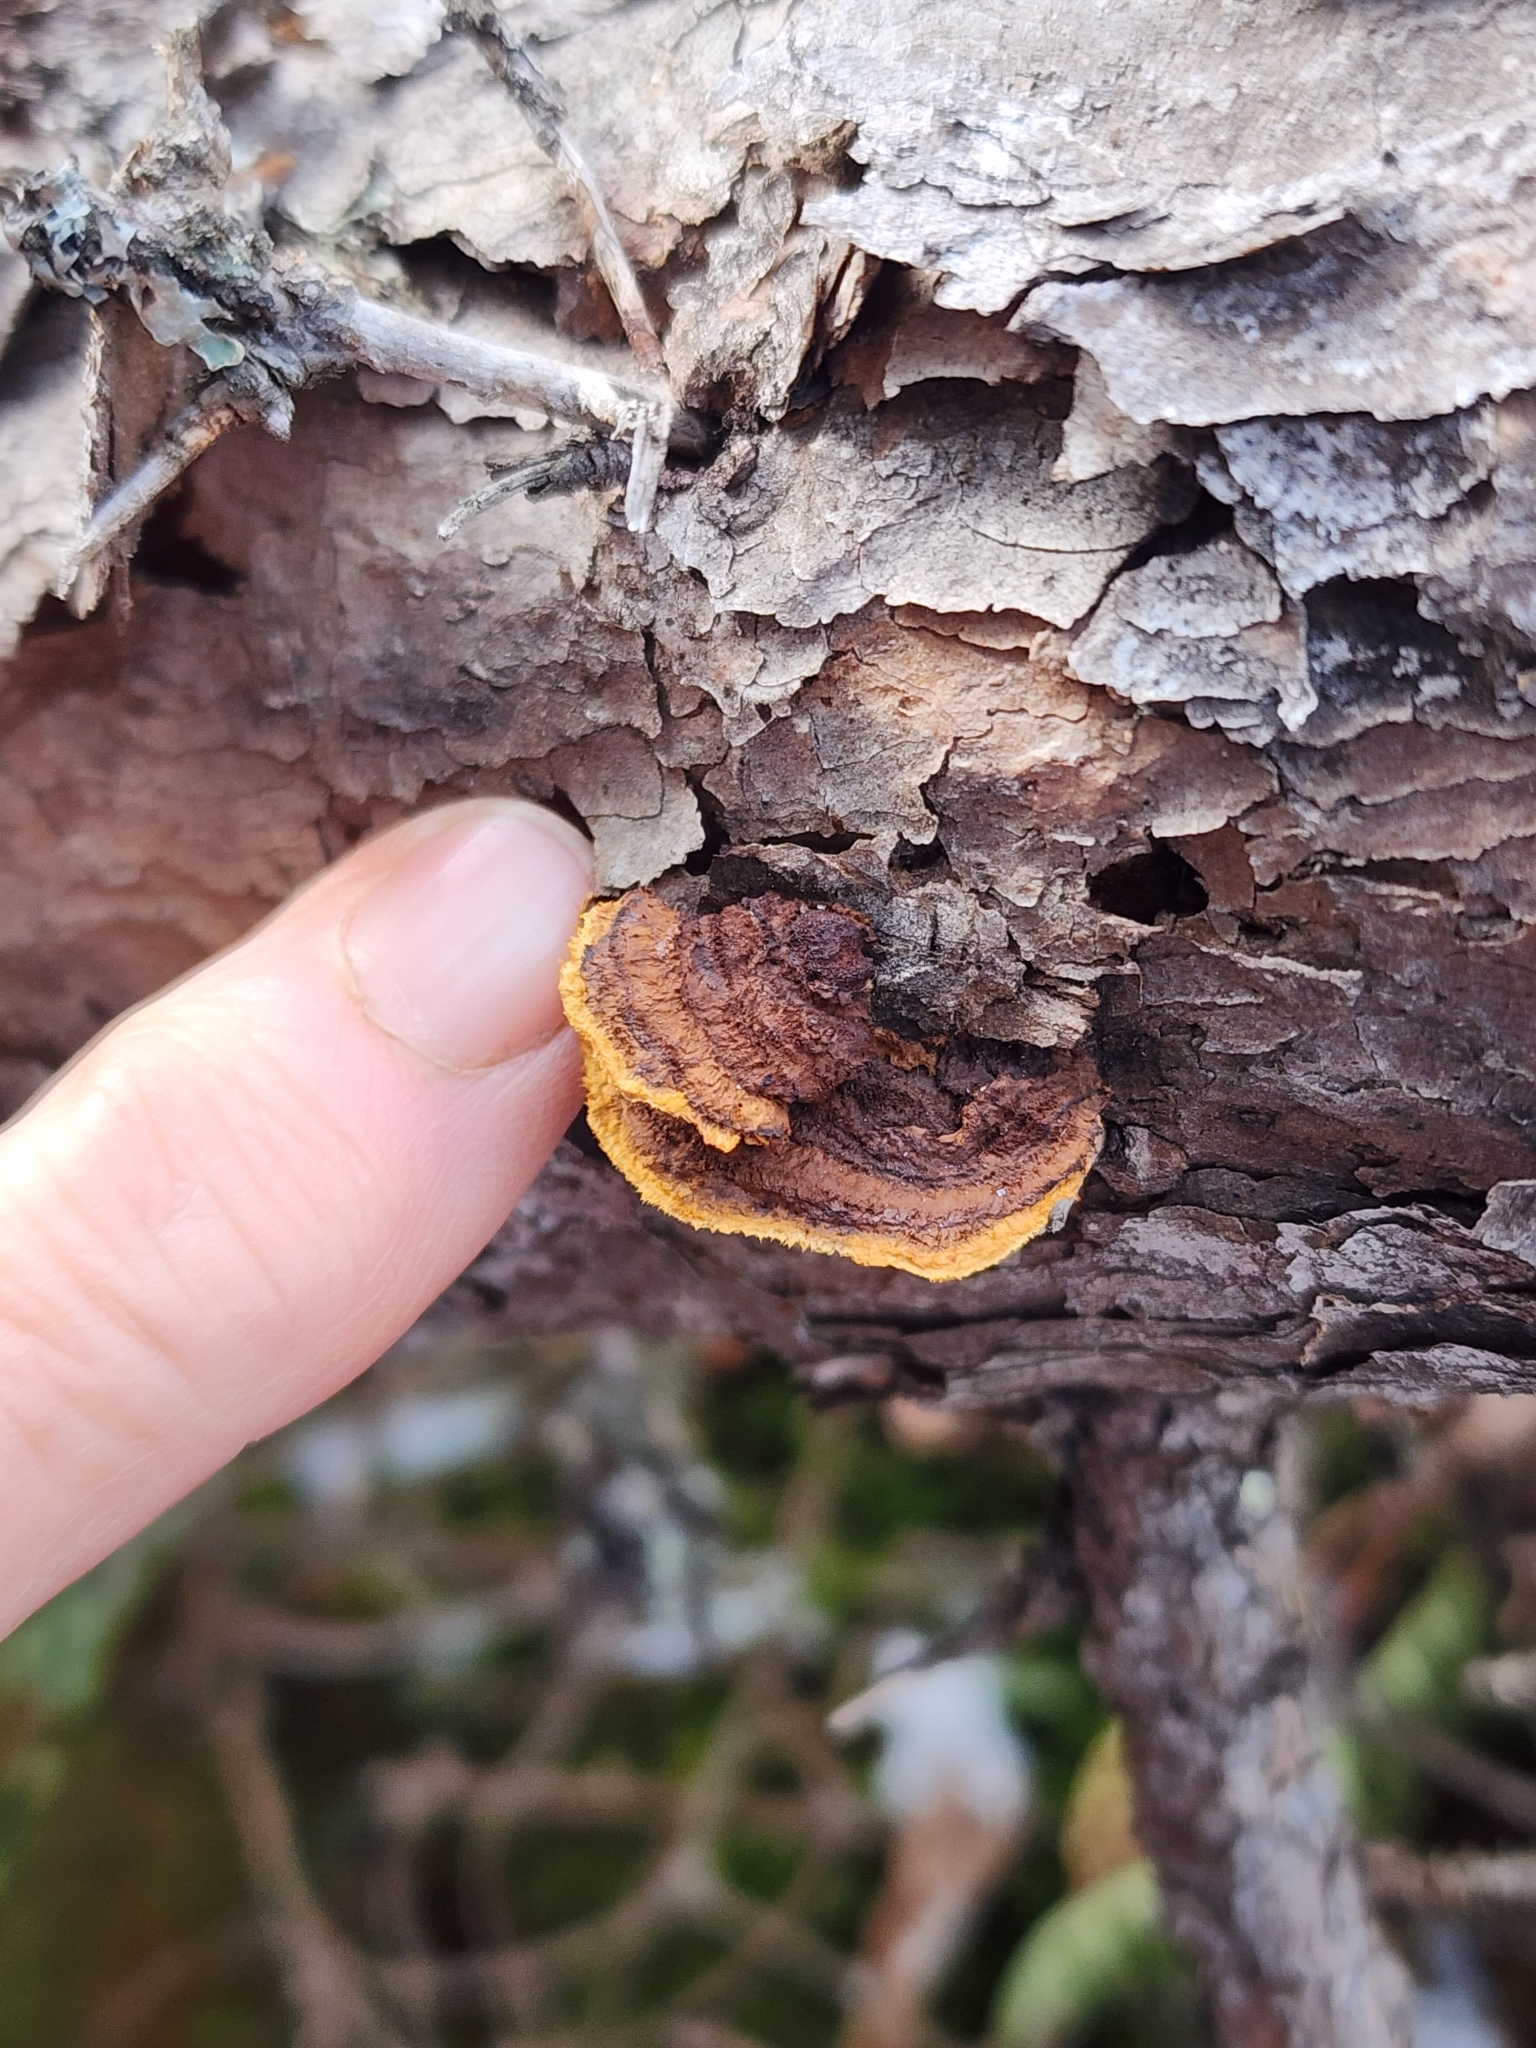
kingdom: Fungi
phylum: Basidiomycota
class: Agaricomycetes
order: Gloeophyllales
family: Gloeophyllaceae
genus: Gloeophyllum
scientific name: Gloeophyllum sepiarium
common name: Conifer mazegill
